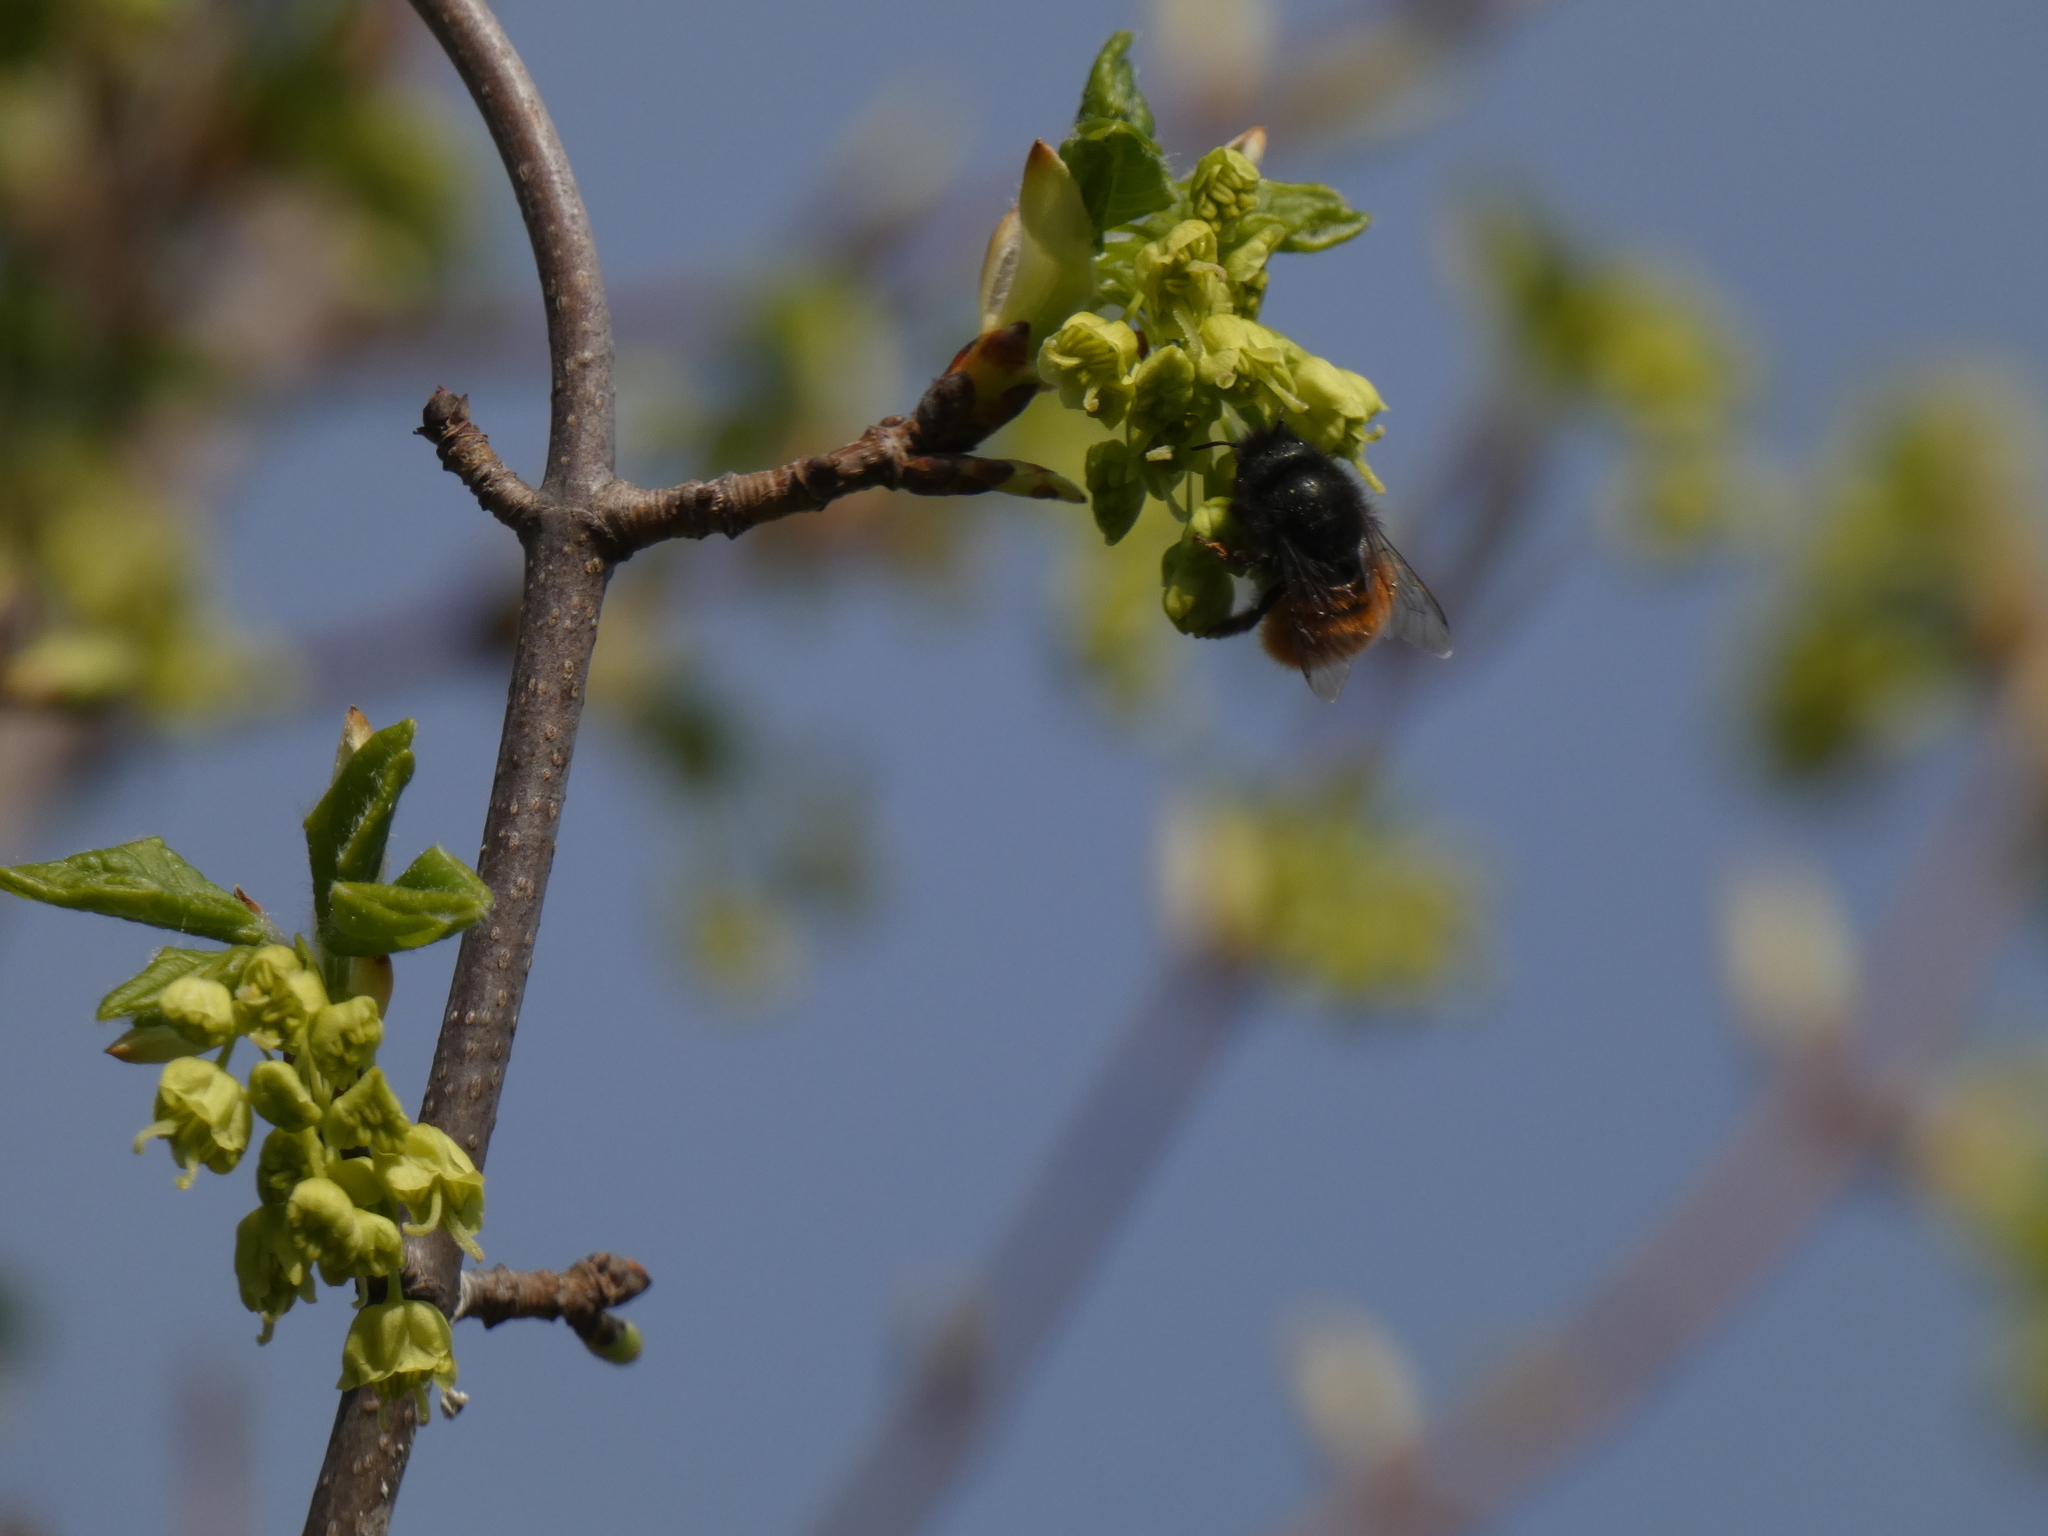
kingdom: Animalia
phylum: Arthropoda
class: Insecta
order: Hymenoptera
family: Megachilidae
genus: Osmia
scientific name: Osmia cornuta
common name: Mason bee
